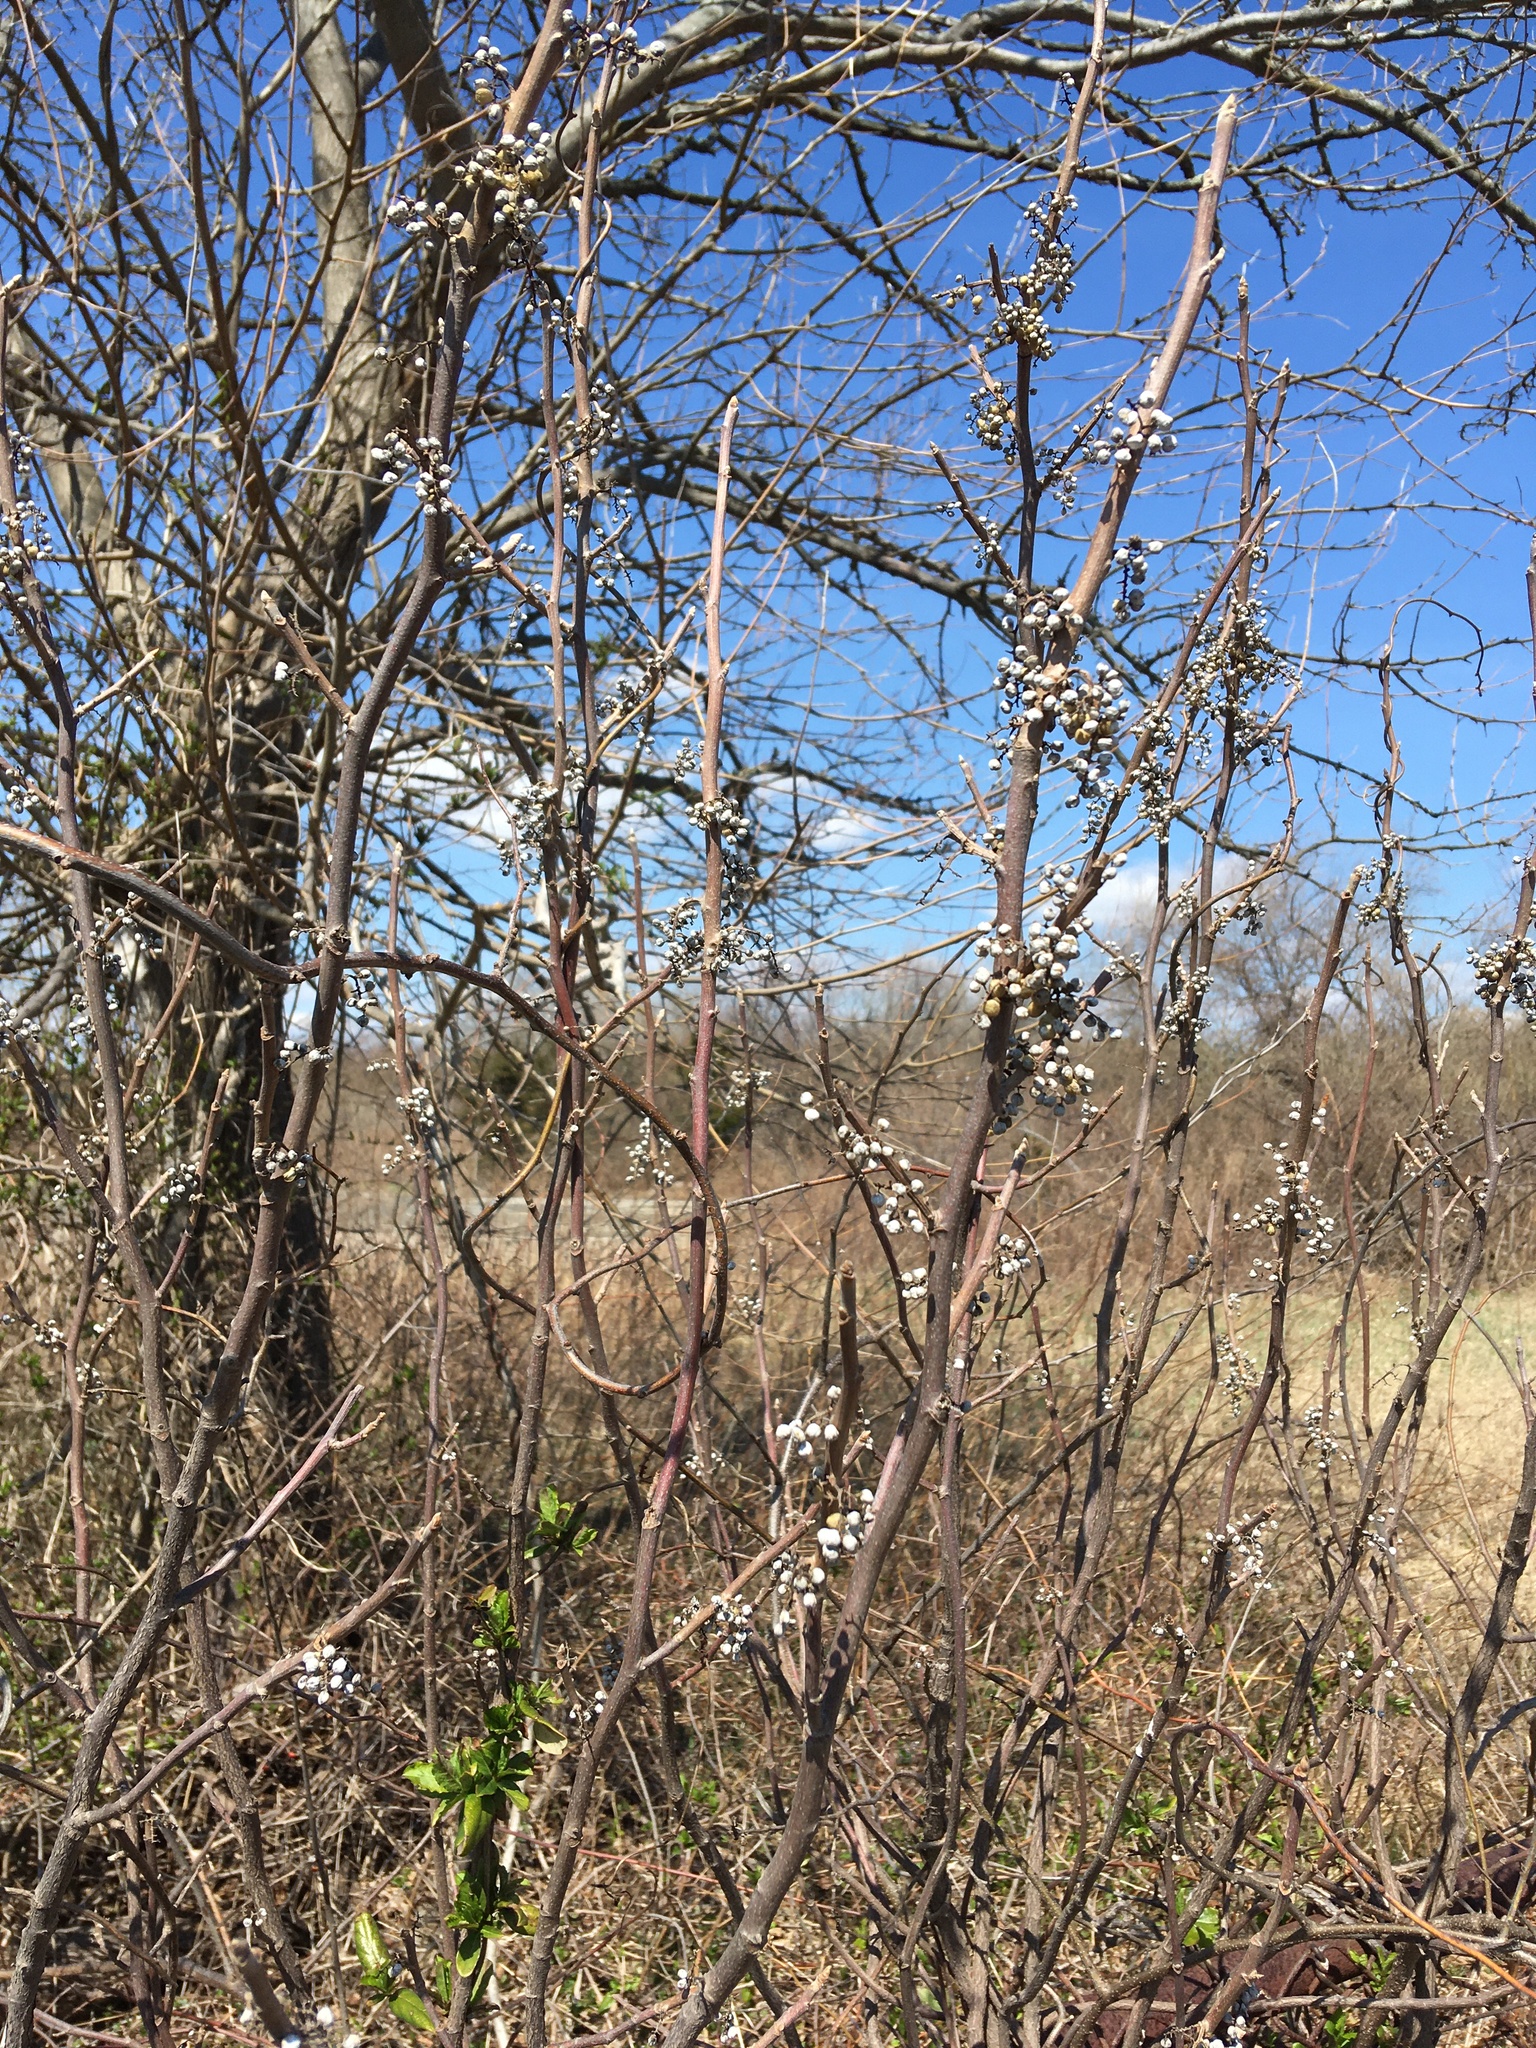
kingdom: Plantae
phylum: Tracheophyta
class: Magnoliopsida
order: Sapindales
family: Anacardiaceae
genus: Toxicodendron
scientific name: Toxicodendron radicans
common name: Poison ivy
